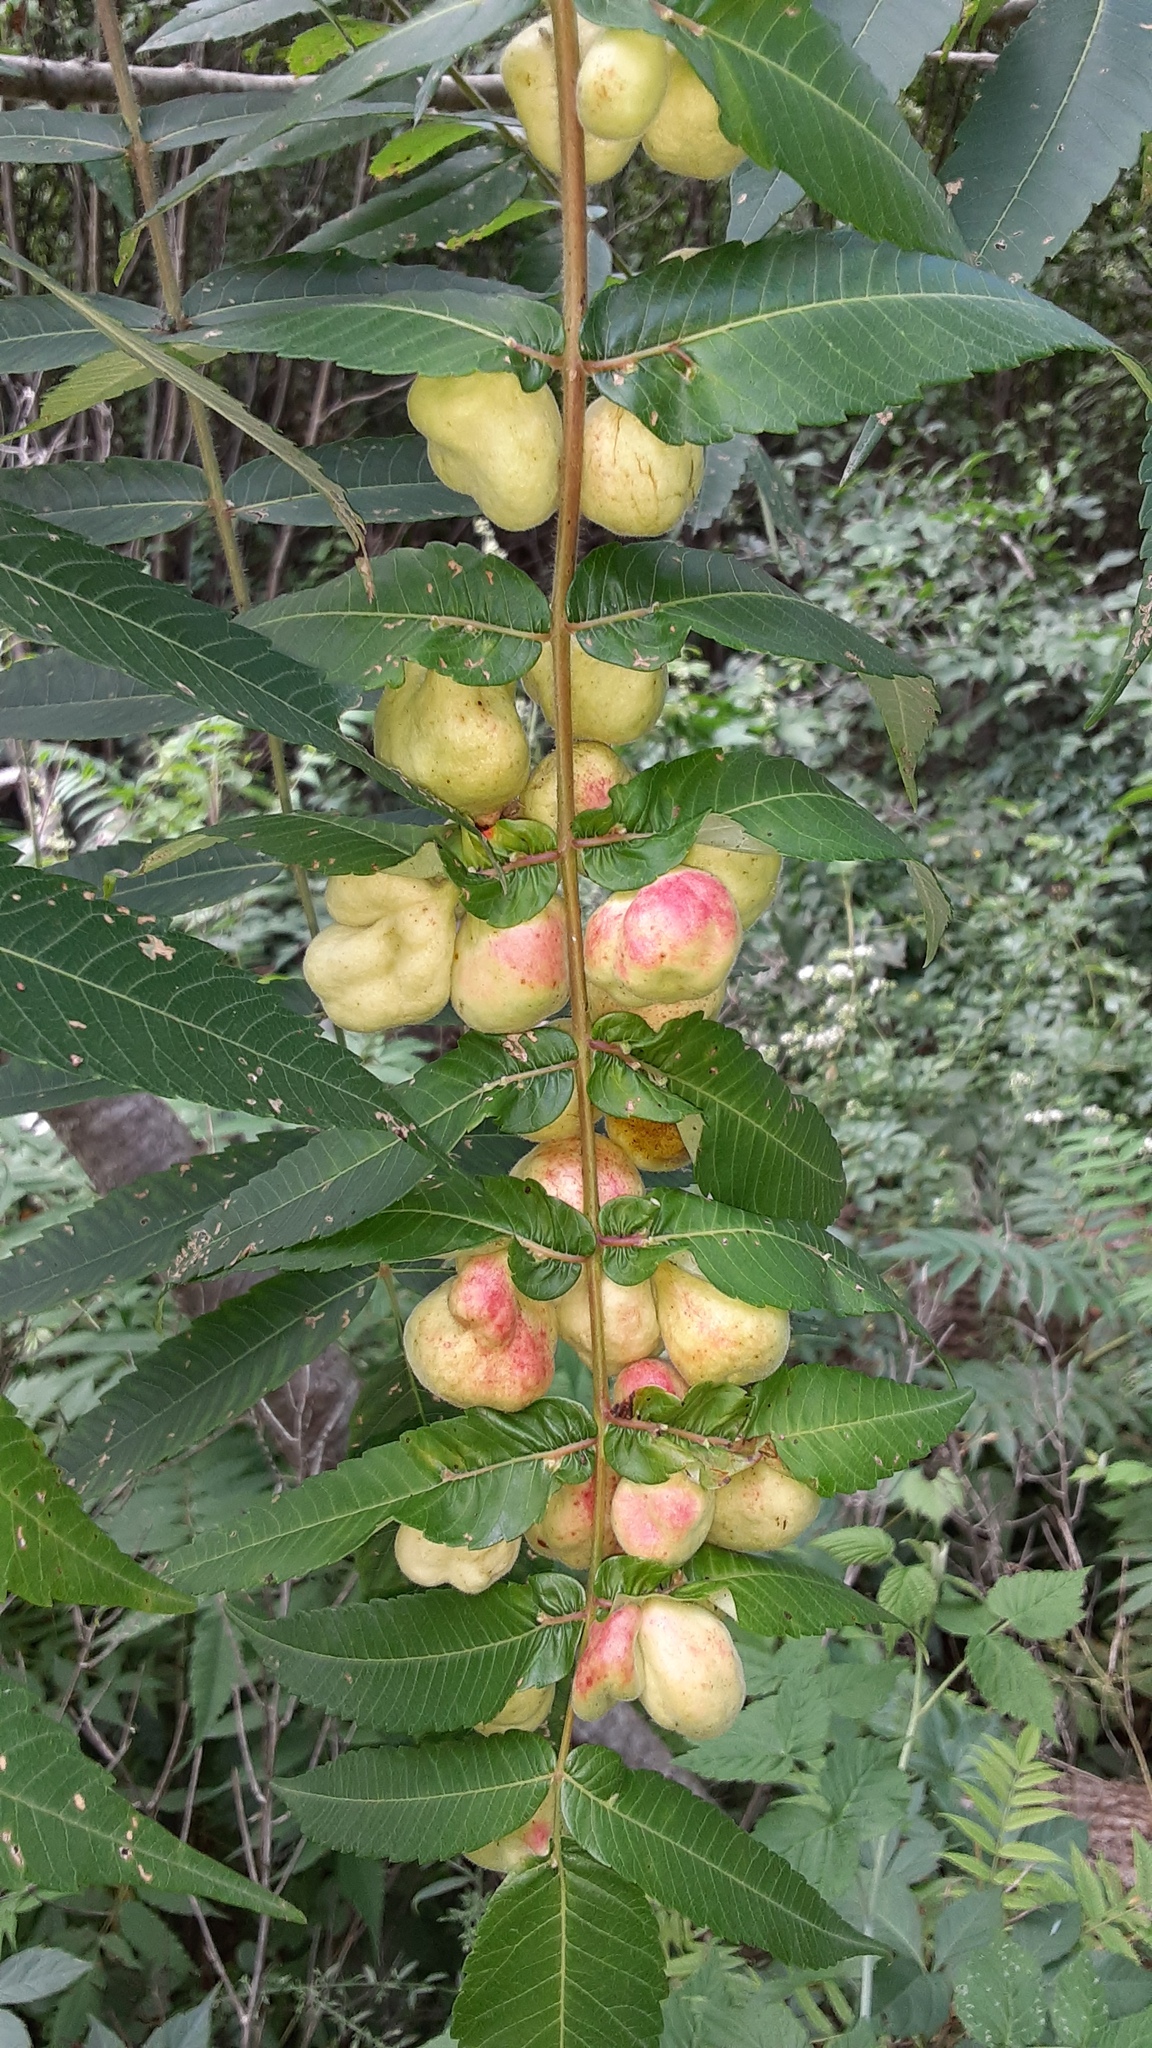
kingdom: Animalia
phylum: Arthropoda
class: Insecta
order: Hemiptera
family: Aphididae
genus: Melaphis
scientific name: Melaphis rhois
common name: Sumac gall aphid
